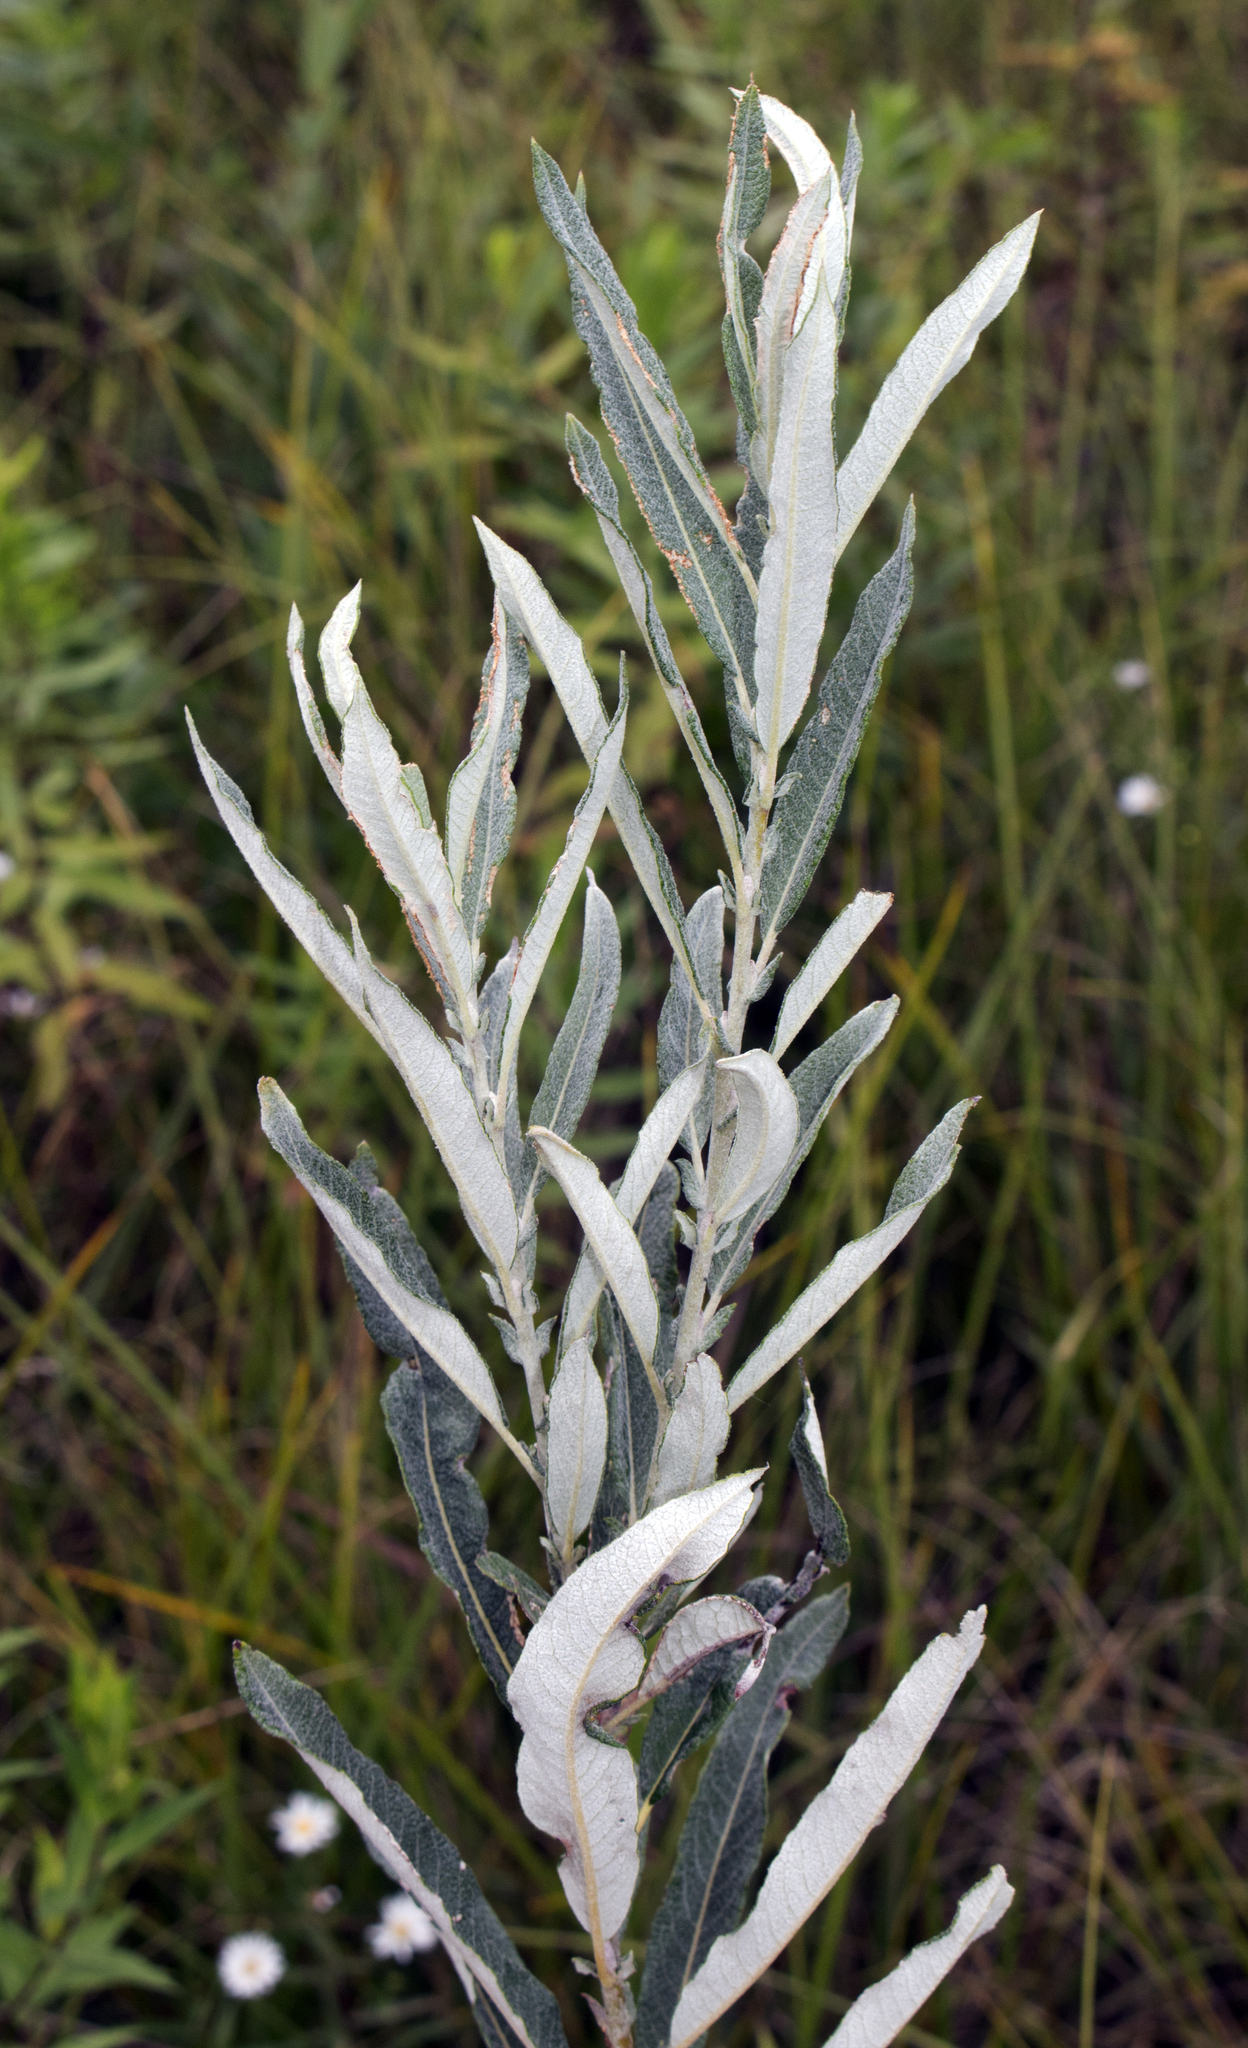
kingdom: Plantae
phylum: Tracheophyta
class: Magnoliopsida
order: Malpighiales
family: Salicaceae
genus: Salix
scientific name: Salix candida
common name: Hoary willow
